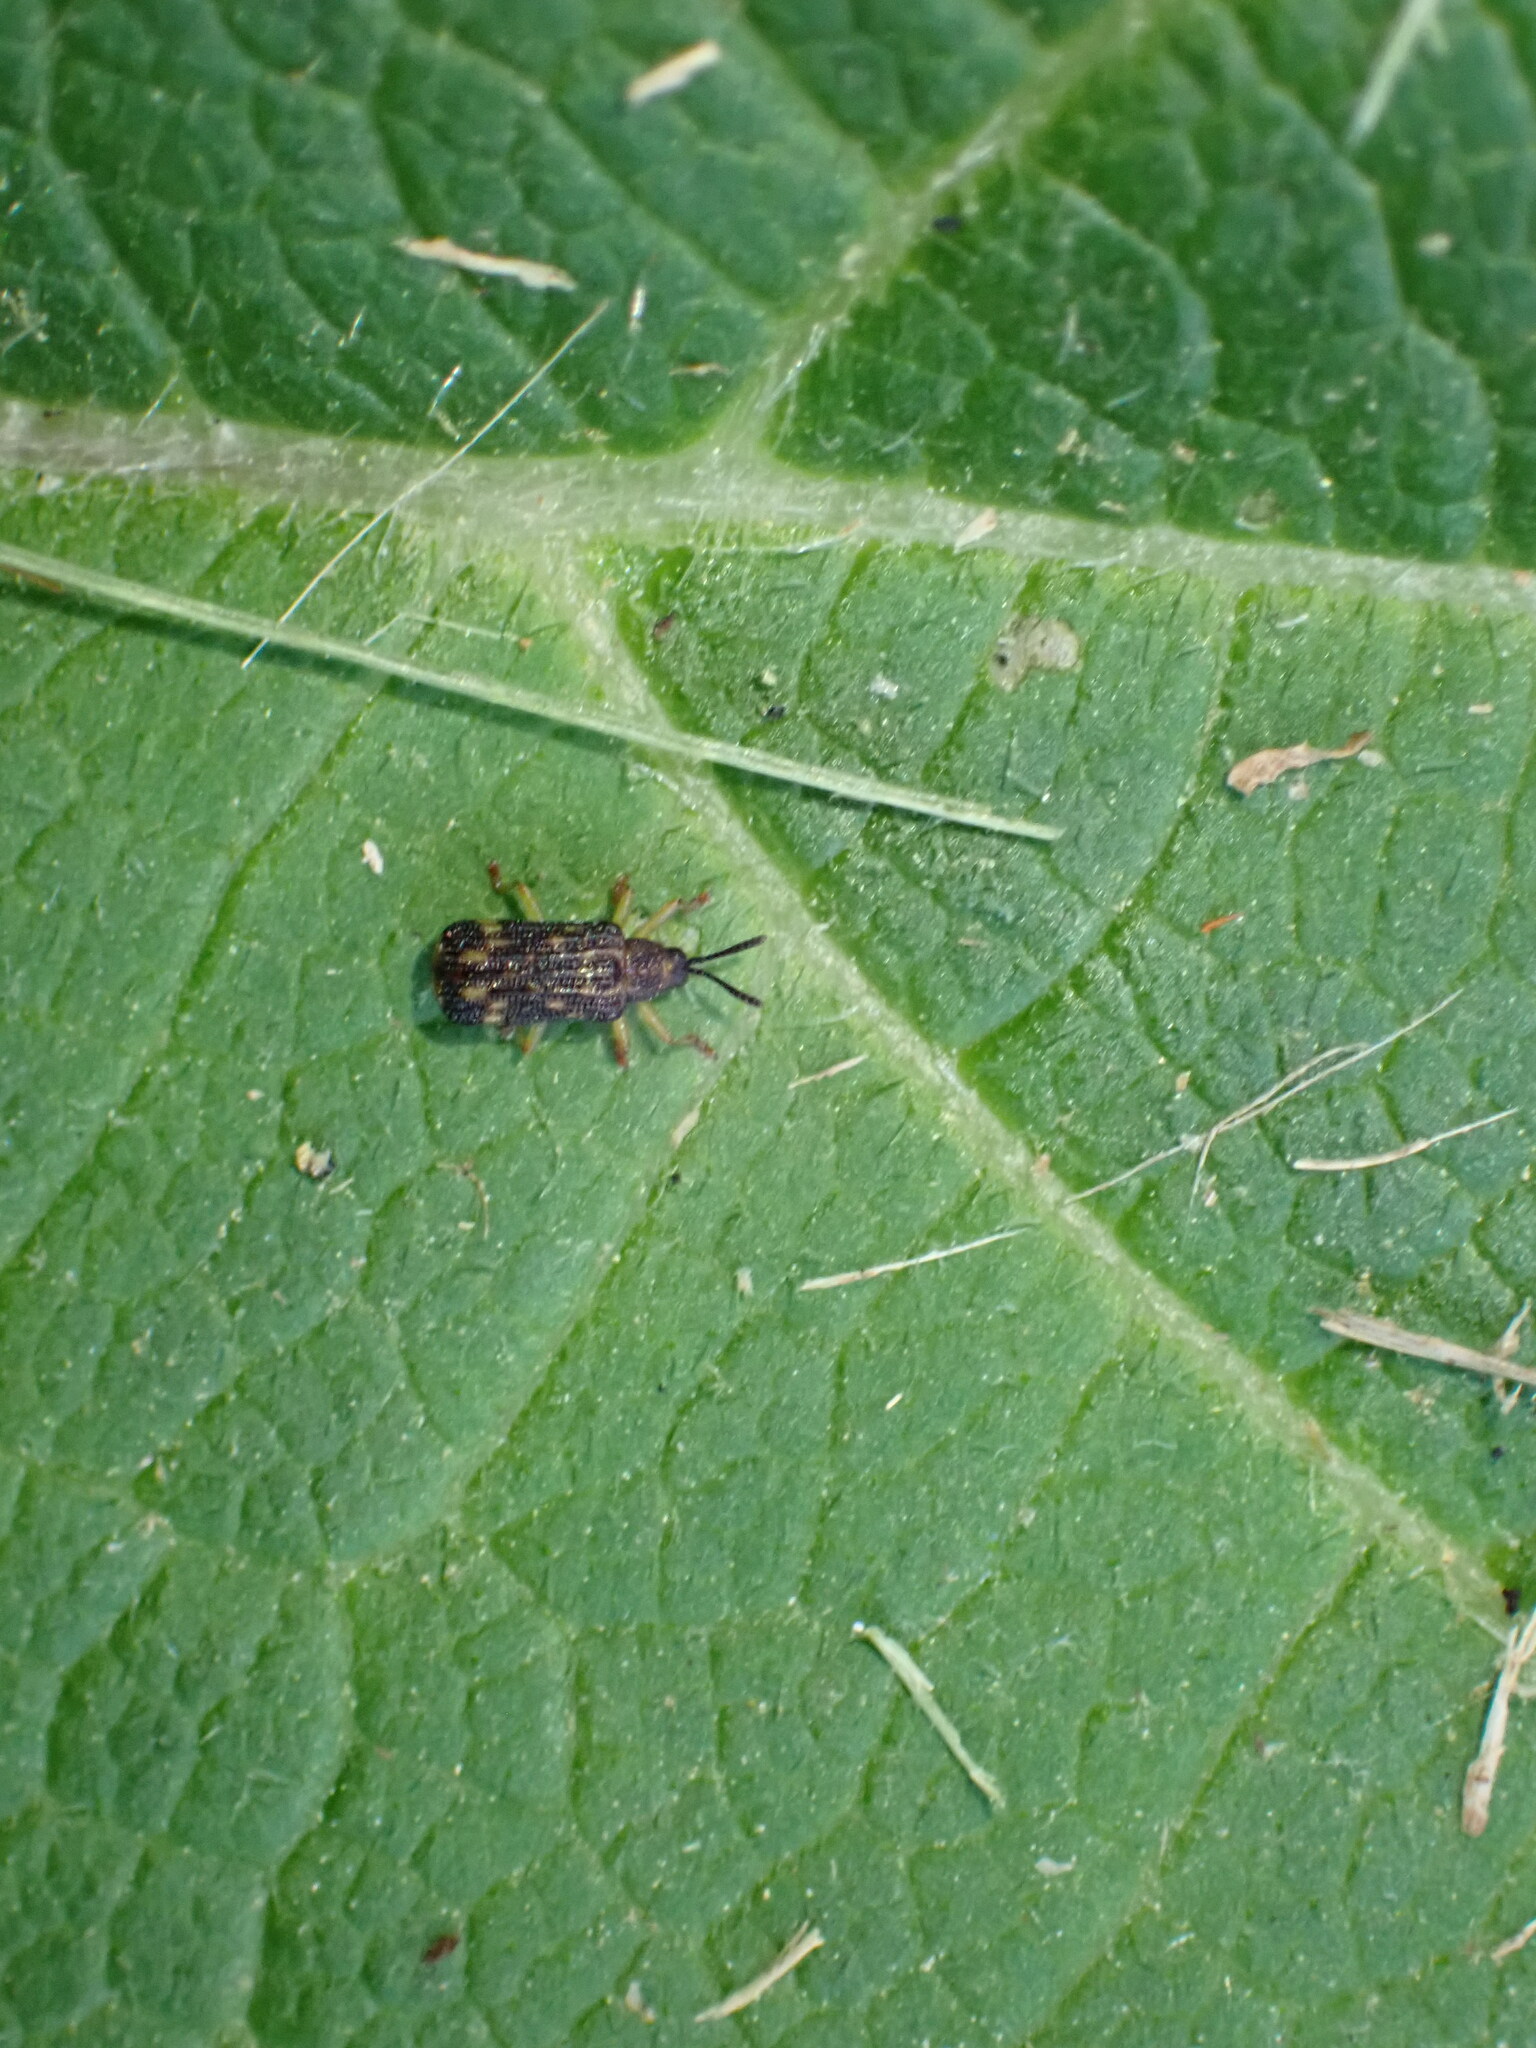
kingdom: Animalia
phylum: Arthropoda
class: Insecta
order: Coleoptera
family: Chrysomelidae
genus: Sumitrosis
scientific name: Sumitrosis inaequalis
